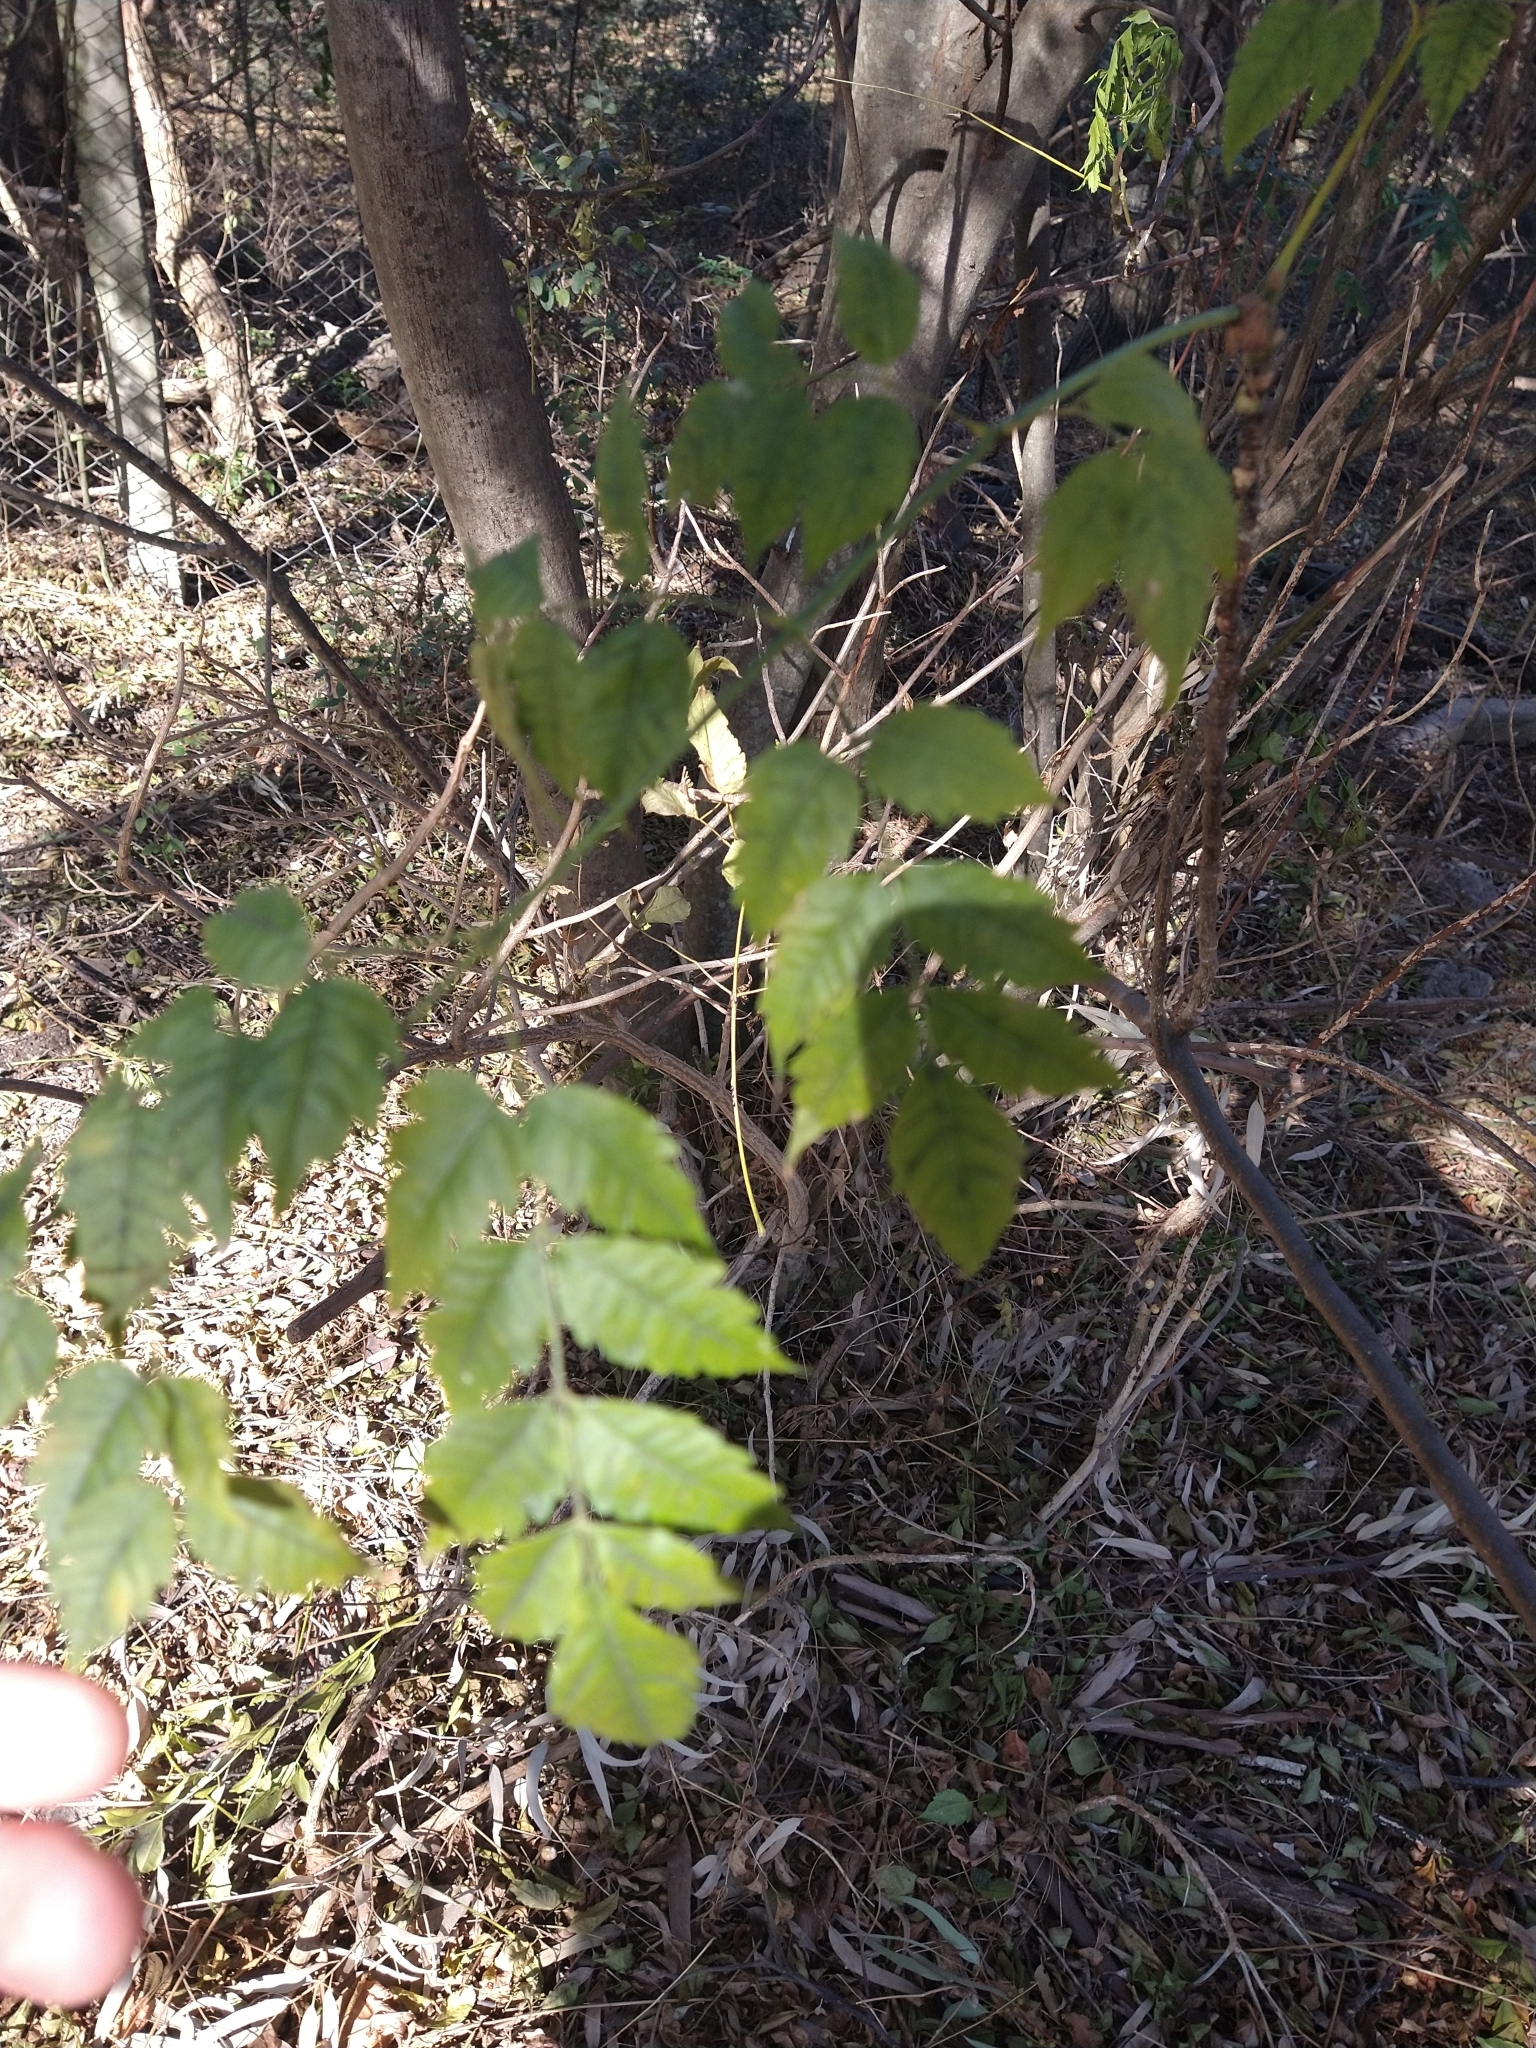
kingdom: Plantae
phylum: Tracheophyta
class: Magnoliopsida
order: Sapindales
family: Meliaceae
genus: Melia
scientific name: Melia azedarach
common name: Chinaberrytree
